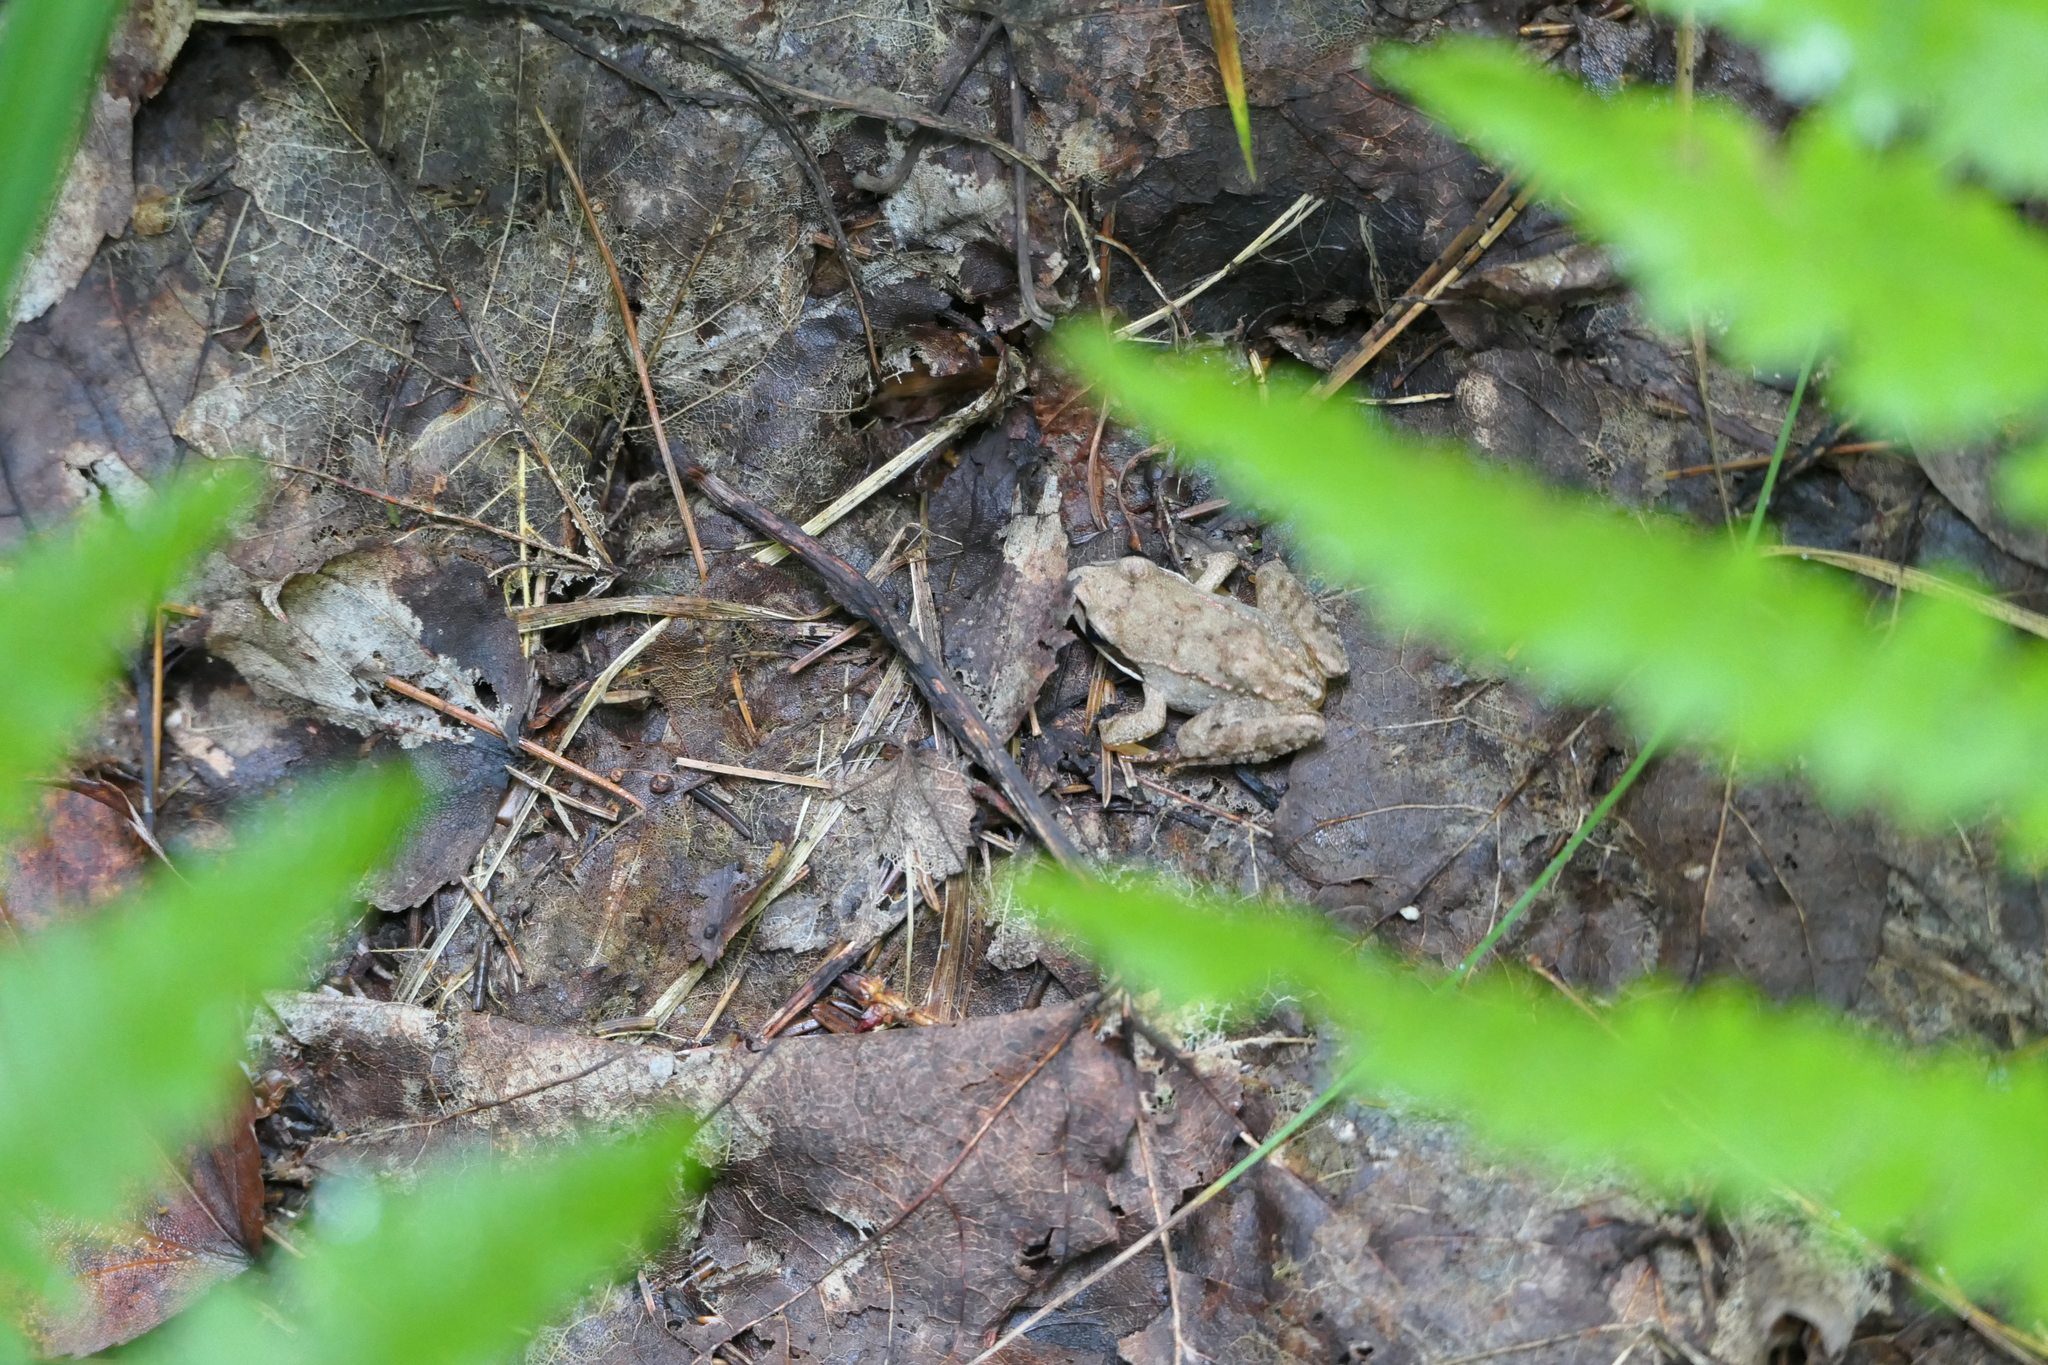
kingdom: Animalia
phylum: Chordata
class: Amphibia
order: Anura
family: Ranidae
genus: Lithobates
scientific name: Lithobates sylvaticus
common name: Wood frog
